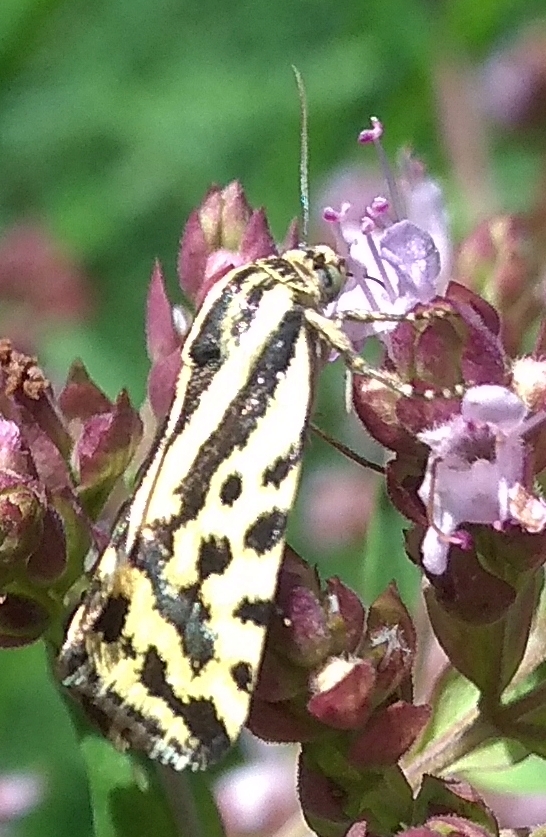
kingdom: Animalia
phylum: Arthropoda
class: Insecta
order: Lepidoptera
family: Noctuidae
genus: Acontia
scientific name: Acontia trabealis
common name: Spotted sulphur
